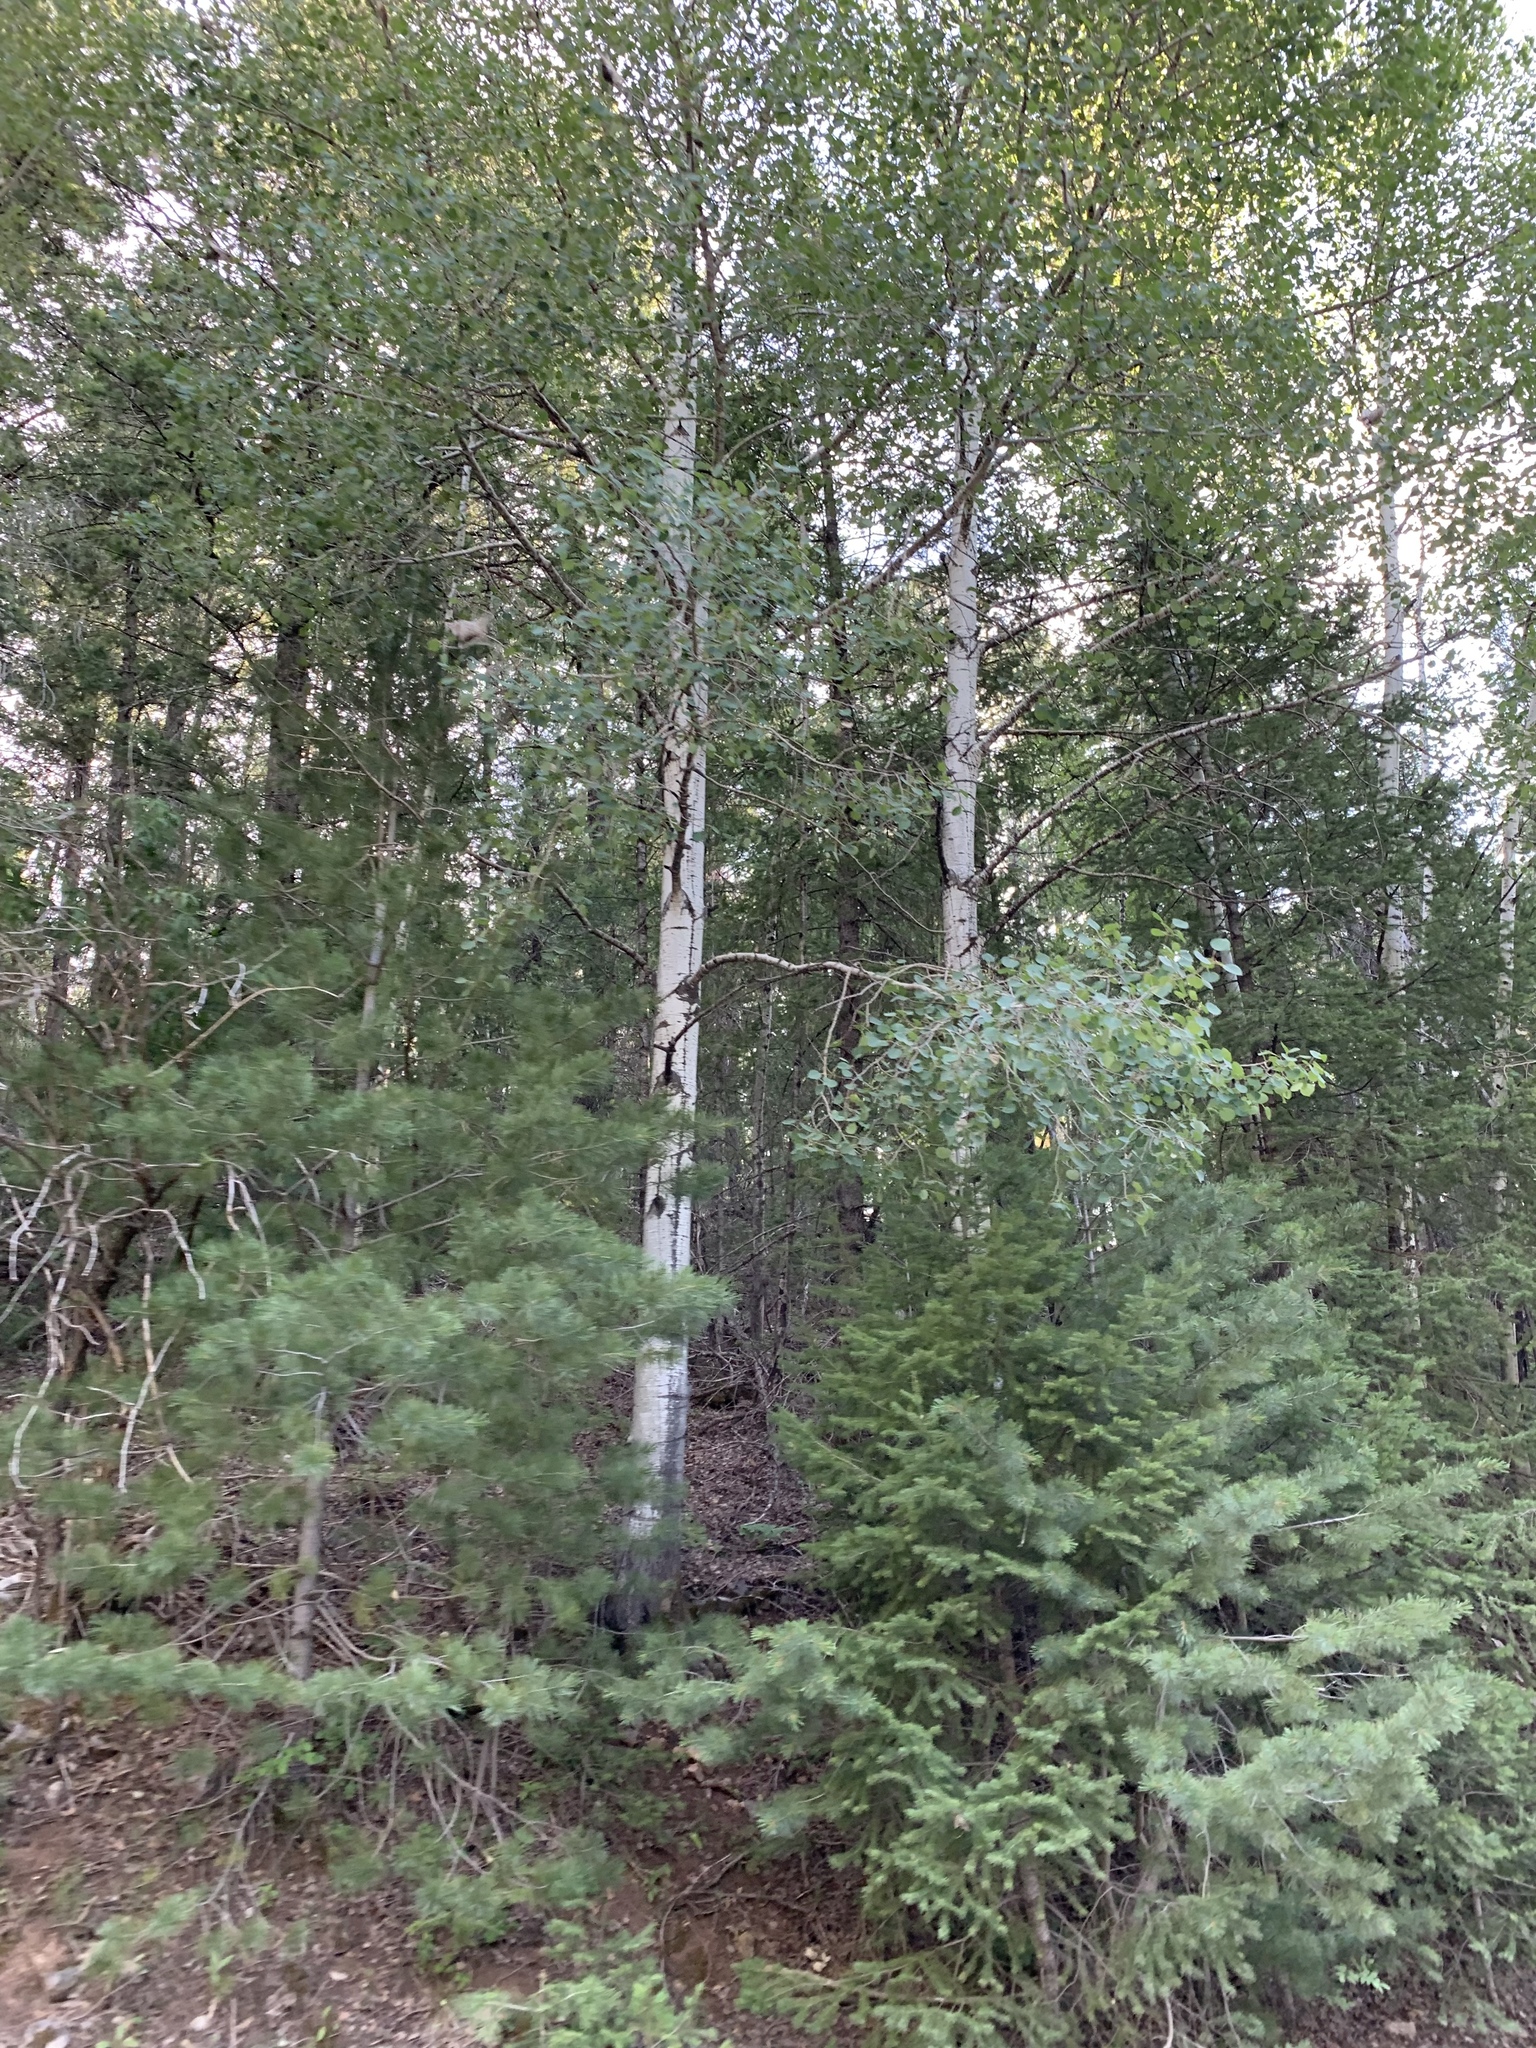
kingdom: Plantae
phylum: Tracheophyta
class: Magnoliopsida
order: Malpighiales
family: Salicaceae
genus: Populus
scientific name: Populus tremuloides
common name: Quaking aspen
